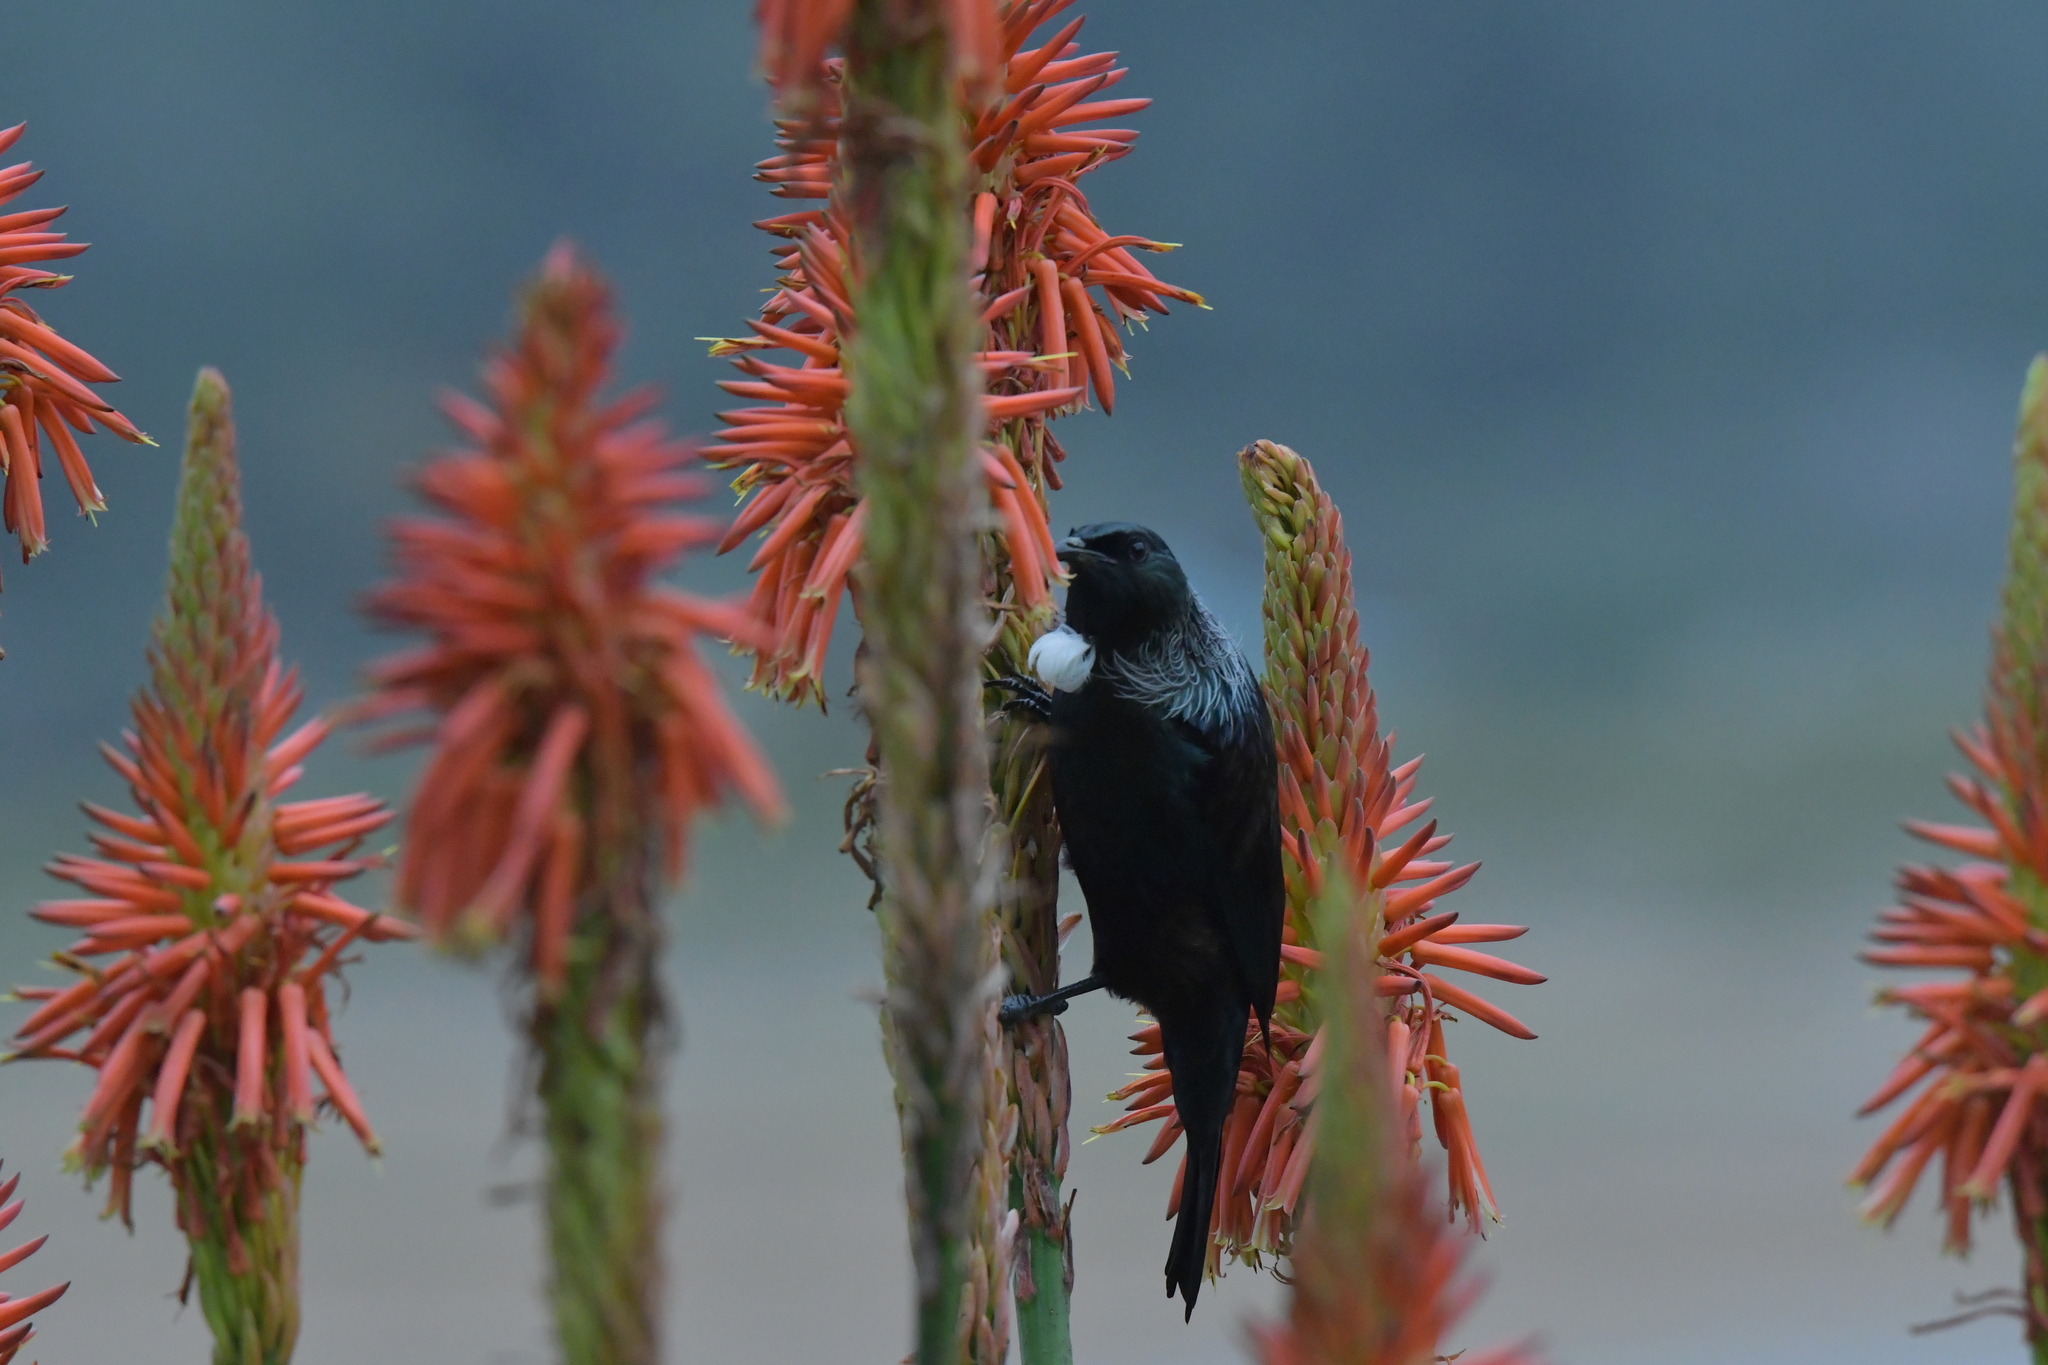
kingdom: Animalia
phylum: Chordata
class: Aves
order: Passeriformes
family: Meliphagidae
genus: Prosthemadera
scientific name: Prosthemadera novaeseelandiae
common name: Tui
